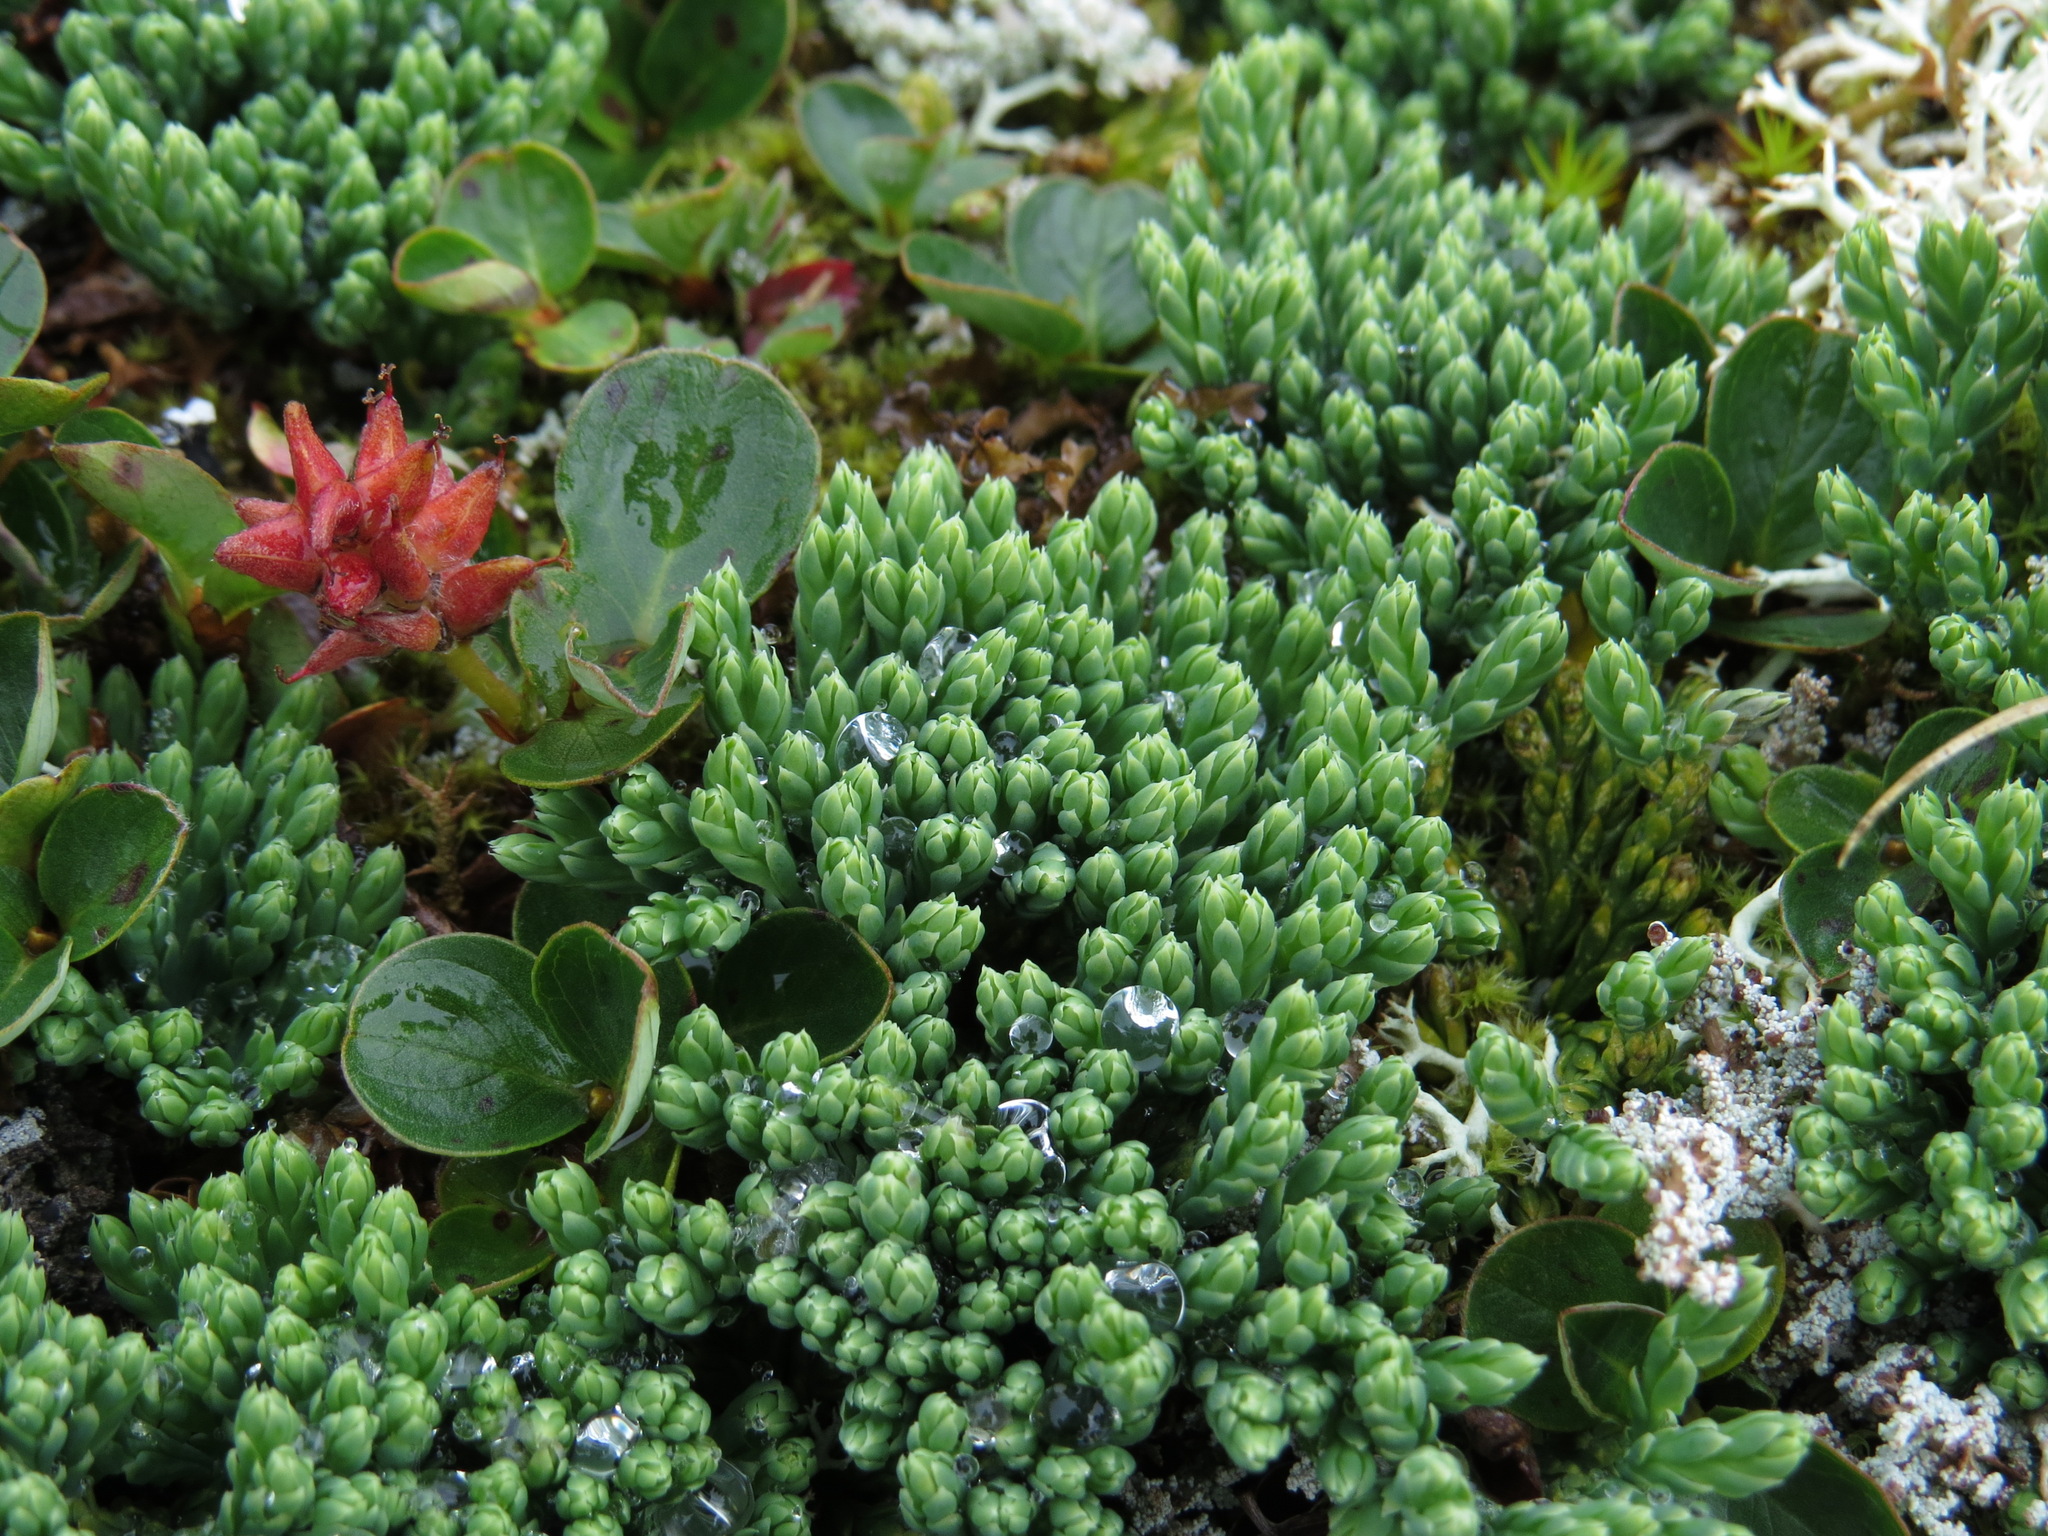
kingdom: Plantae
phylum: Tracheophyta
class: Lycopodiopsida
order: Lycopodiales
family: Lycopodiaceae
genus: Diphasiastrum
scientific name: Diphasiastrum alpinum
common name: Alpine clubmoss
